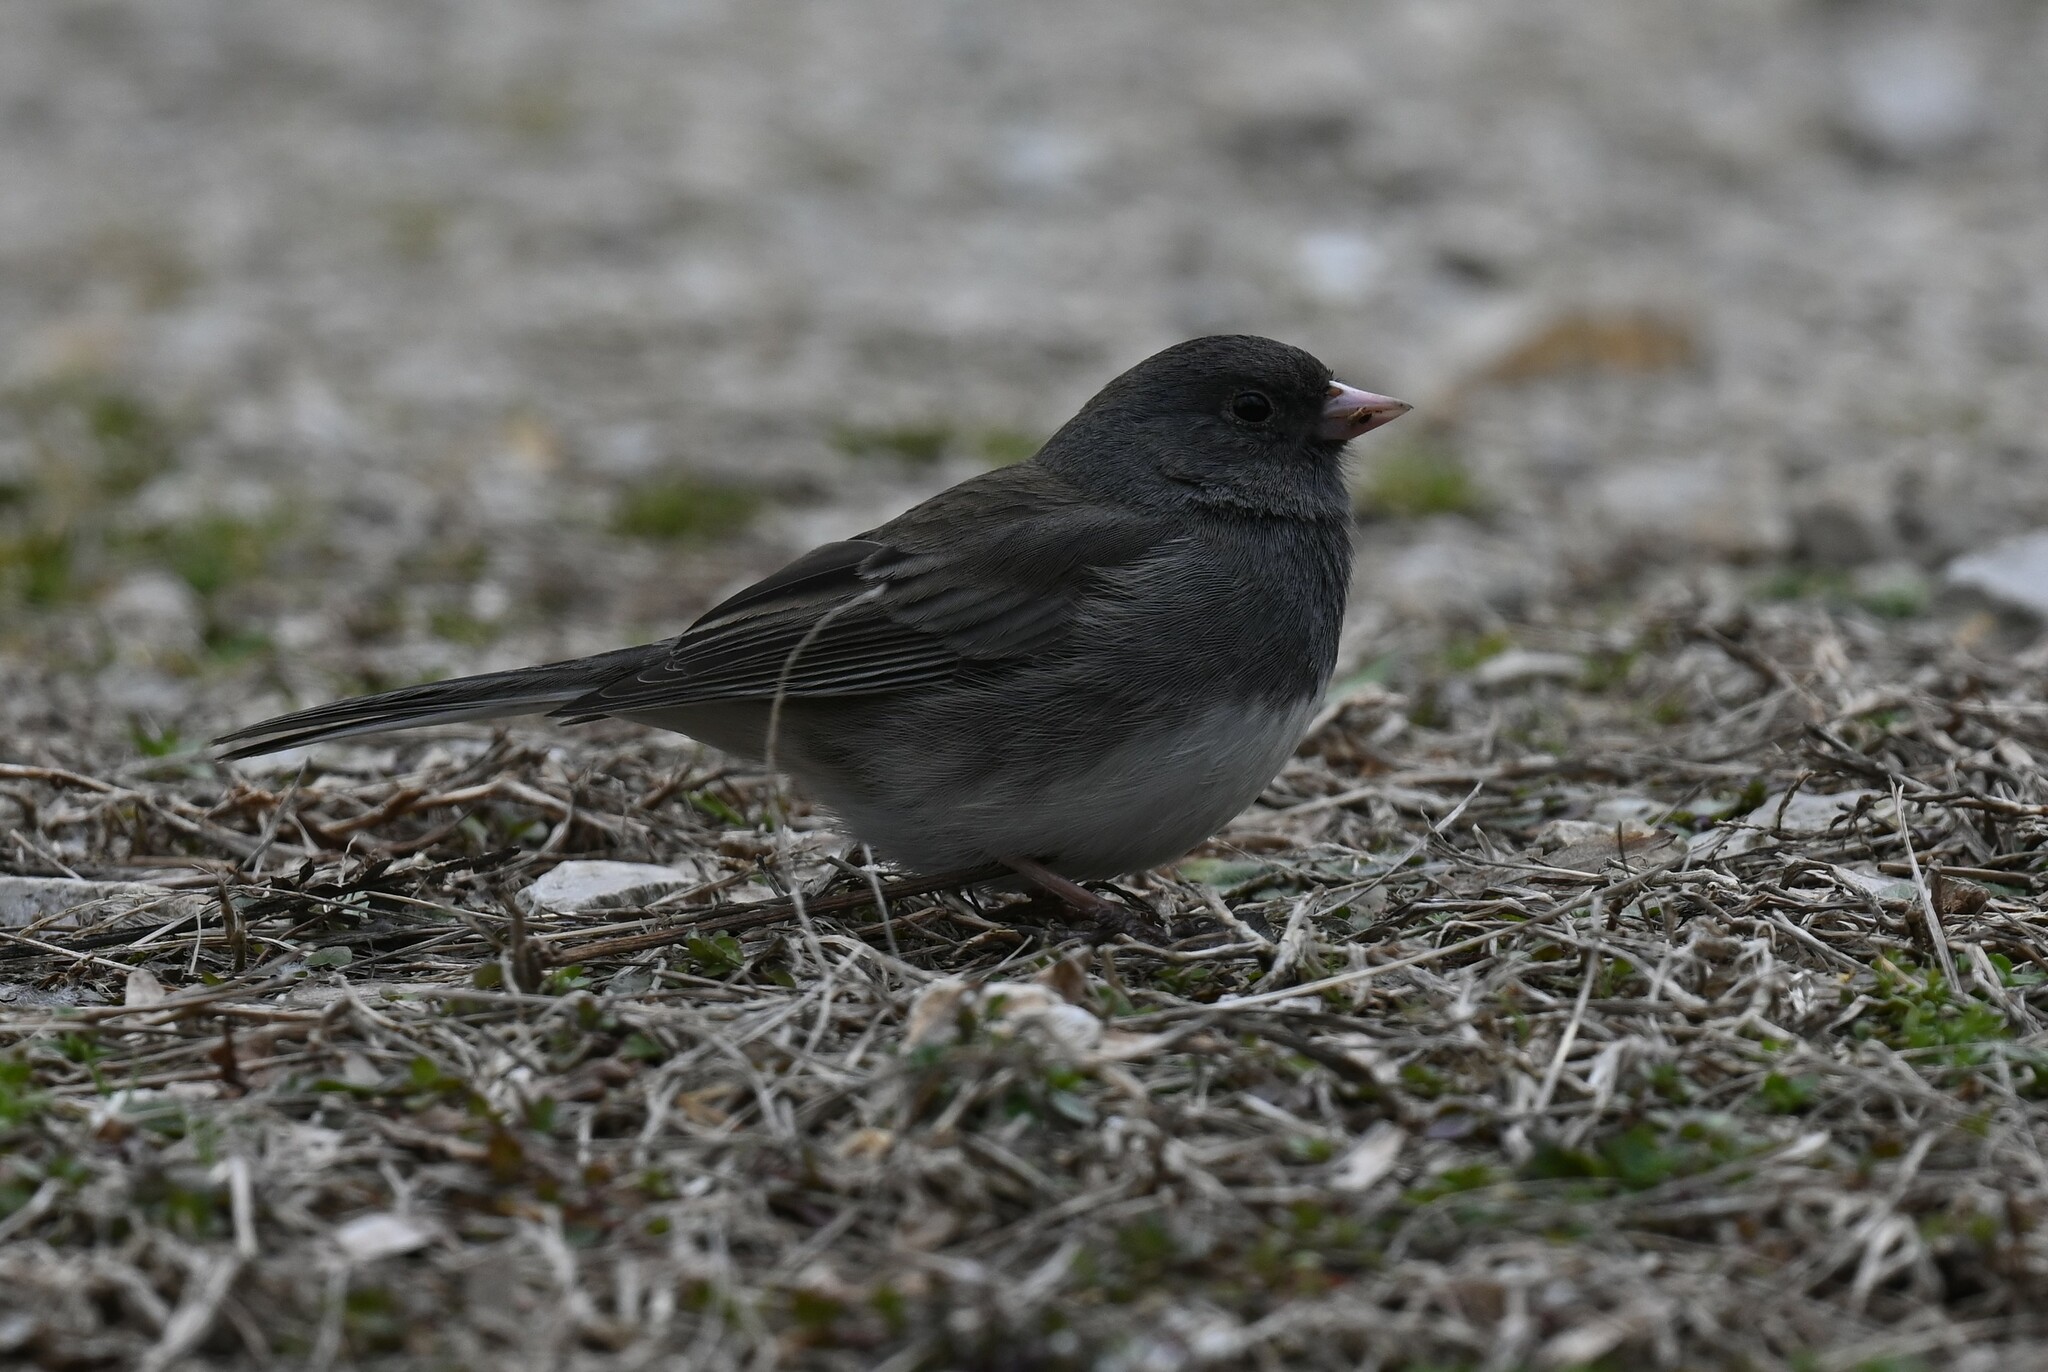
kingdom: Animalia
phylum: Chordata
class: Aves
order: Passeriformes
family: Passerellidae
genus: Junco
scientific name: Junco hyemalis
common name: Dark-eyed junco
